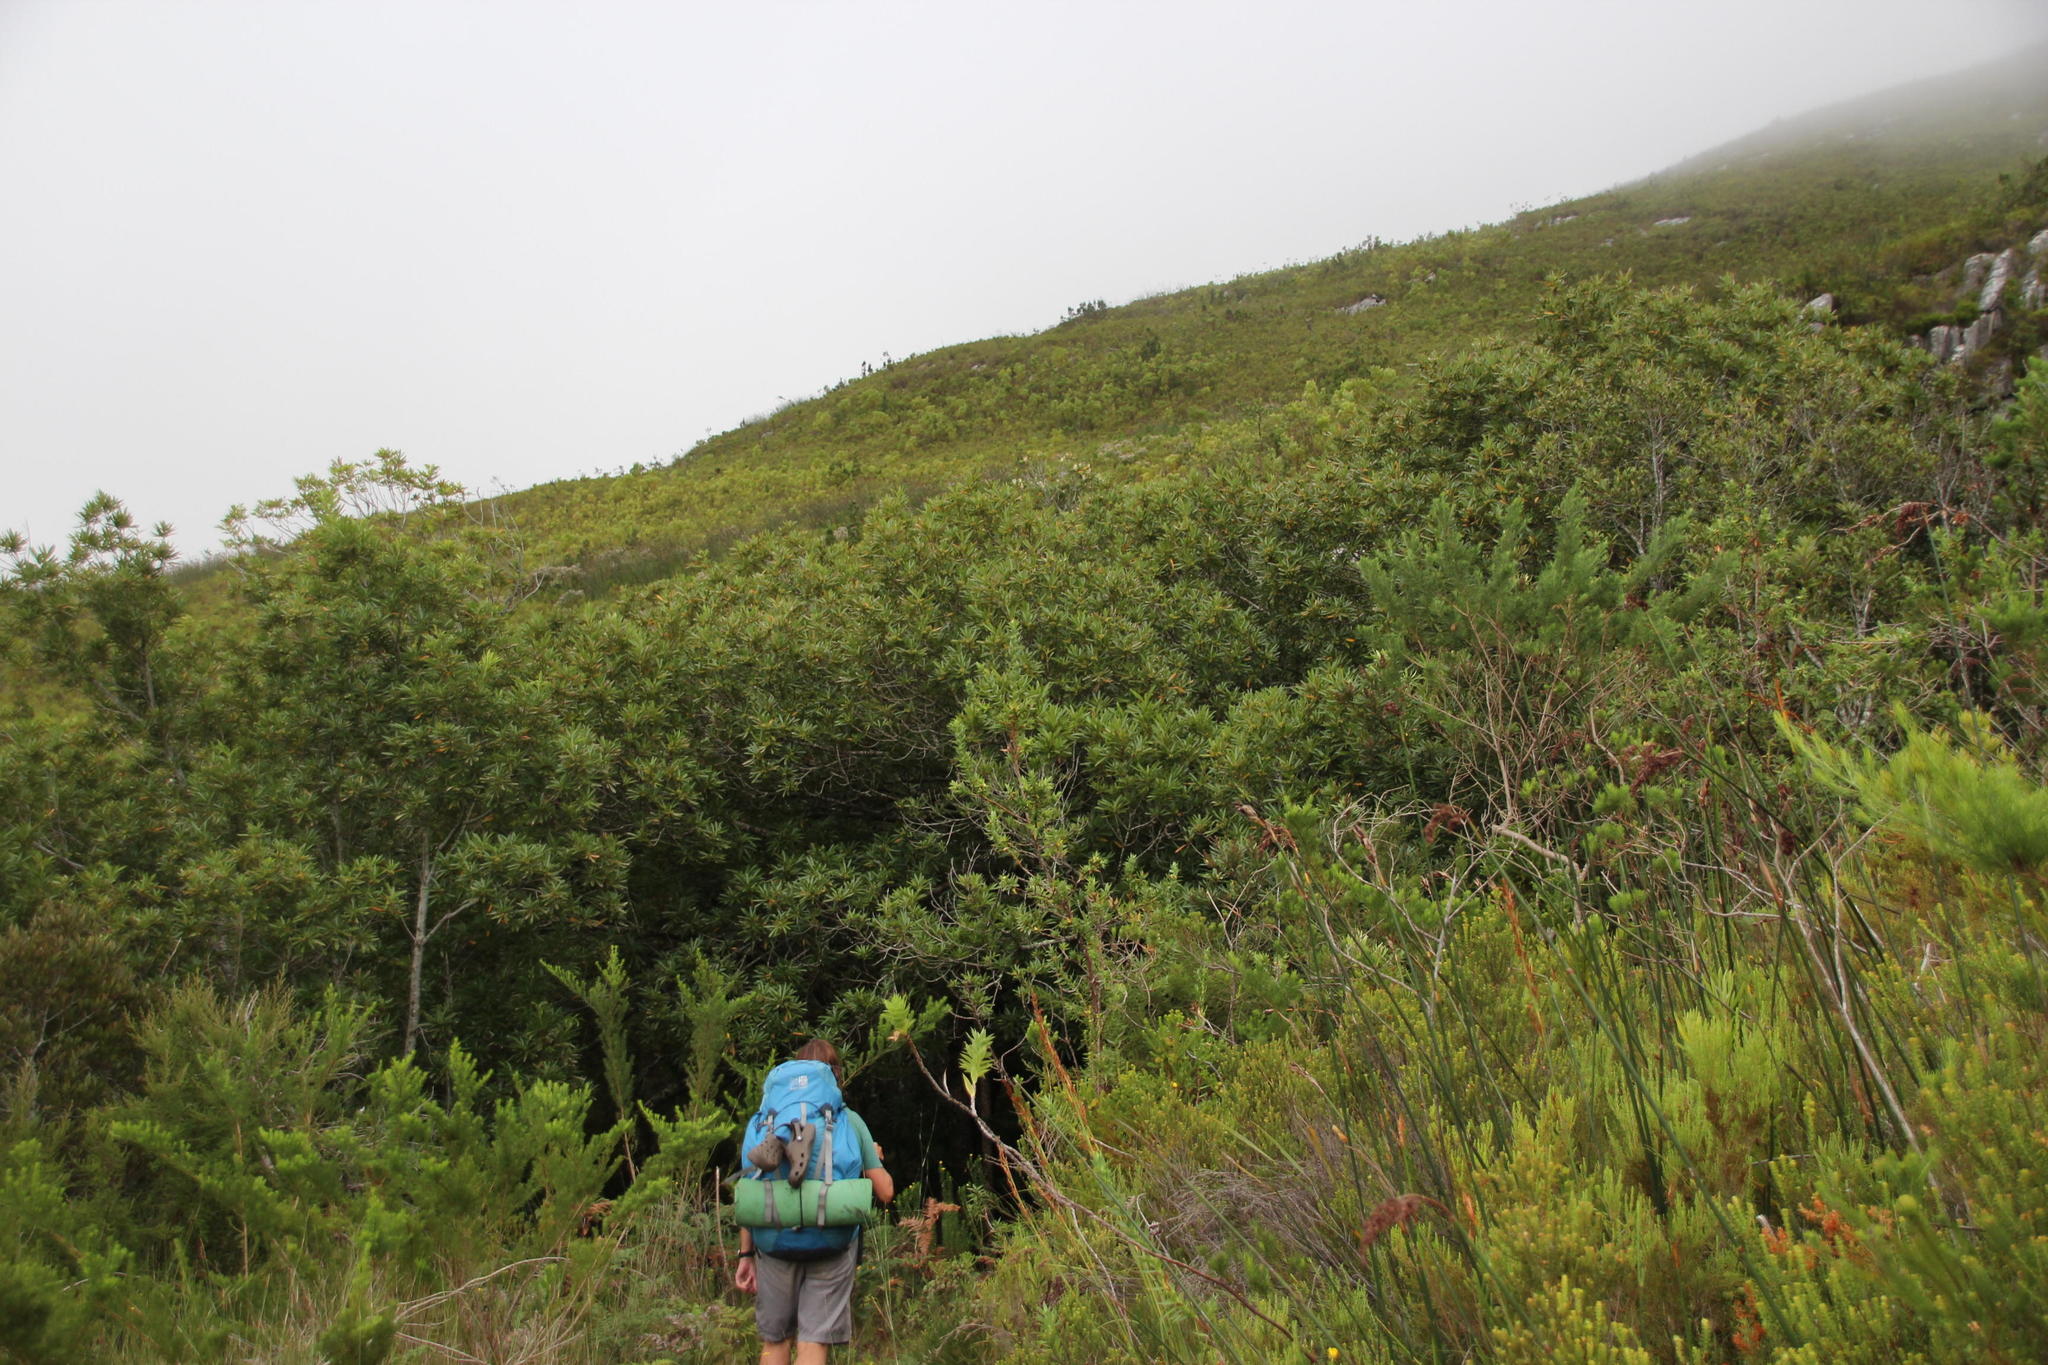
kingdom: Plantae
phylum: Tracheophyta
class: Magnoliopsida
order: Oxalidales
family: Cunoniaceae
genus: Platylophus
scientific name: Platylophus trifoliatus
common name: White alder
